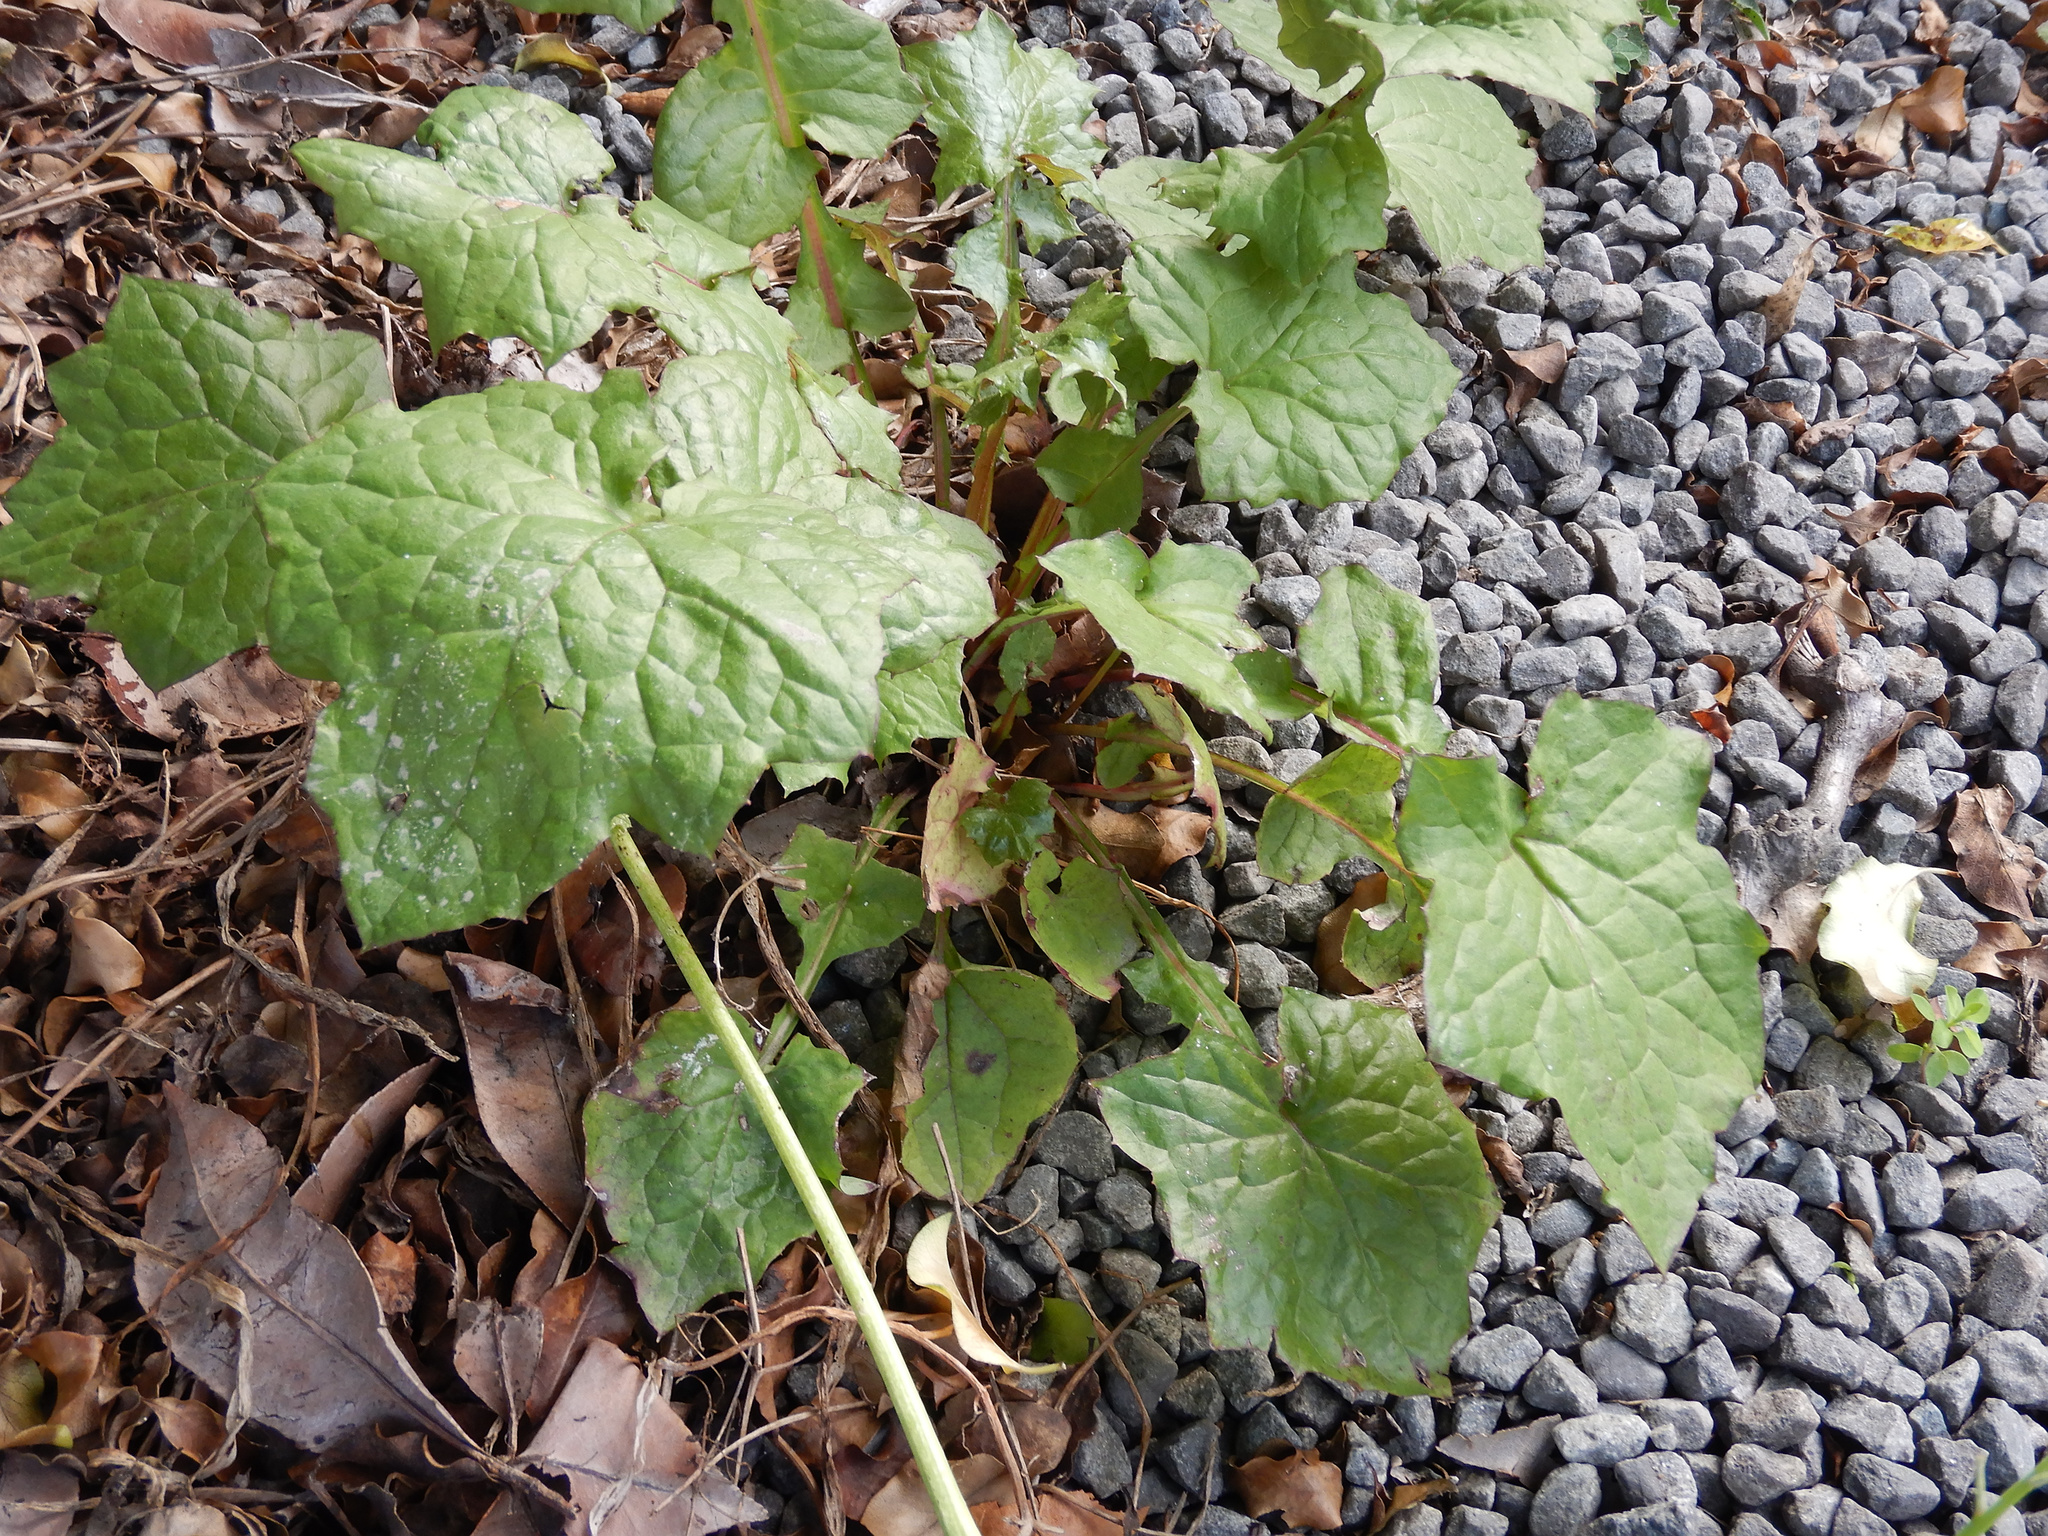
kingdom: Plantae
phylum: Tracheophyta
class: Magnoliopsida
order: Asterales
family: Asteraceae
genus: Mycelis
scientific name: Mycelis muralis
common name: Wall lettuce
